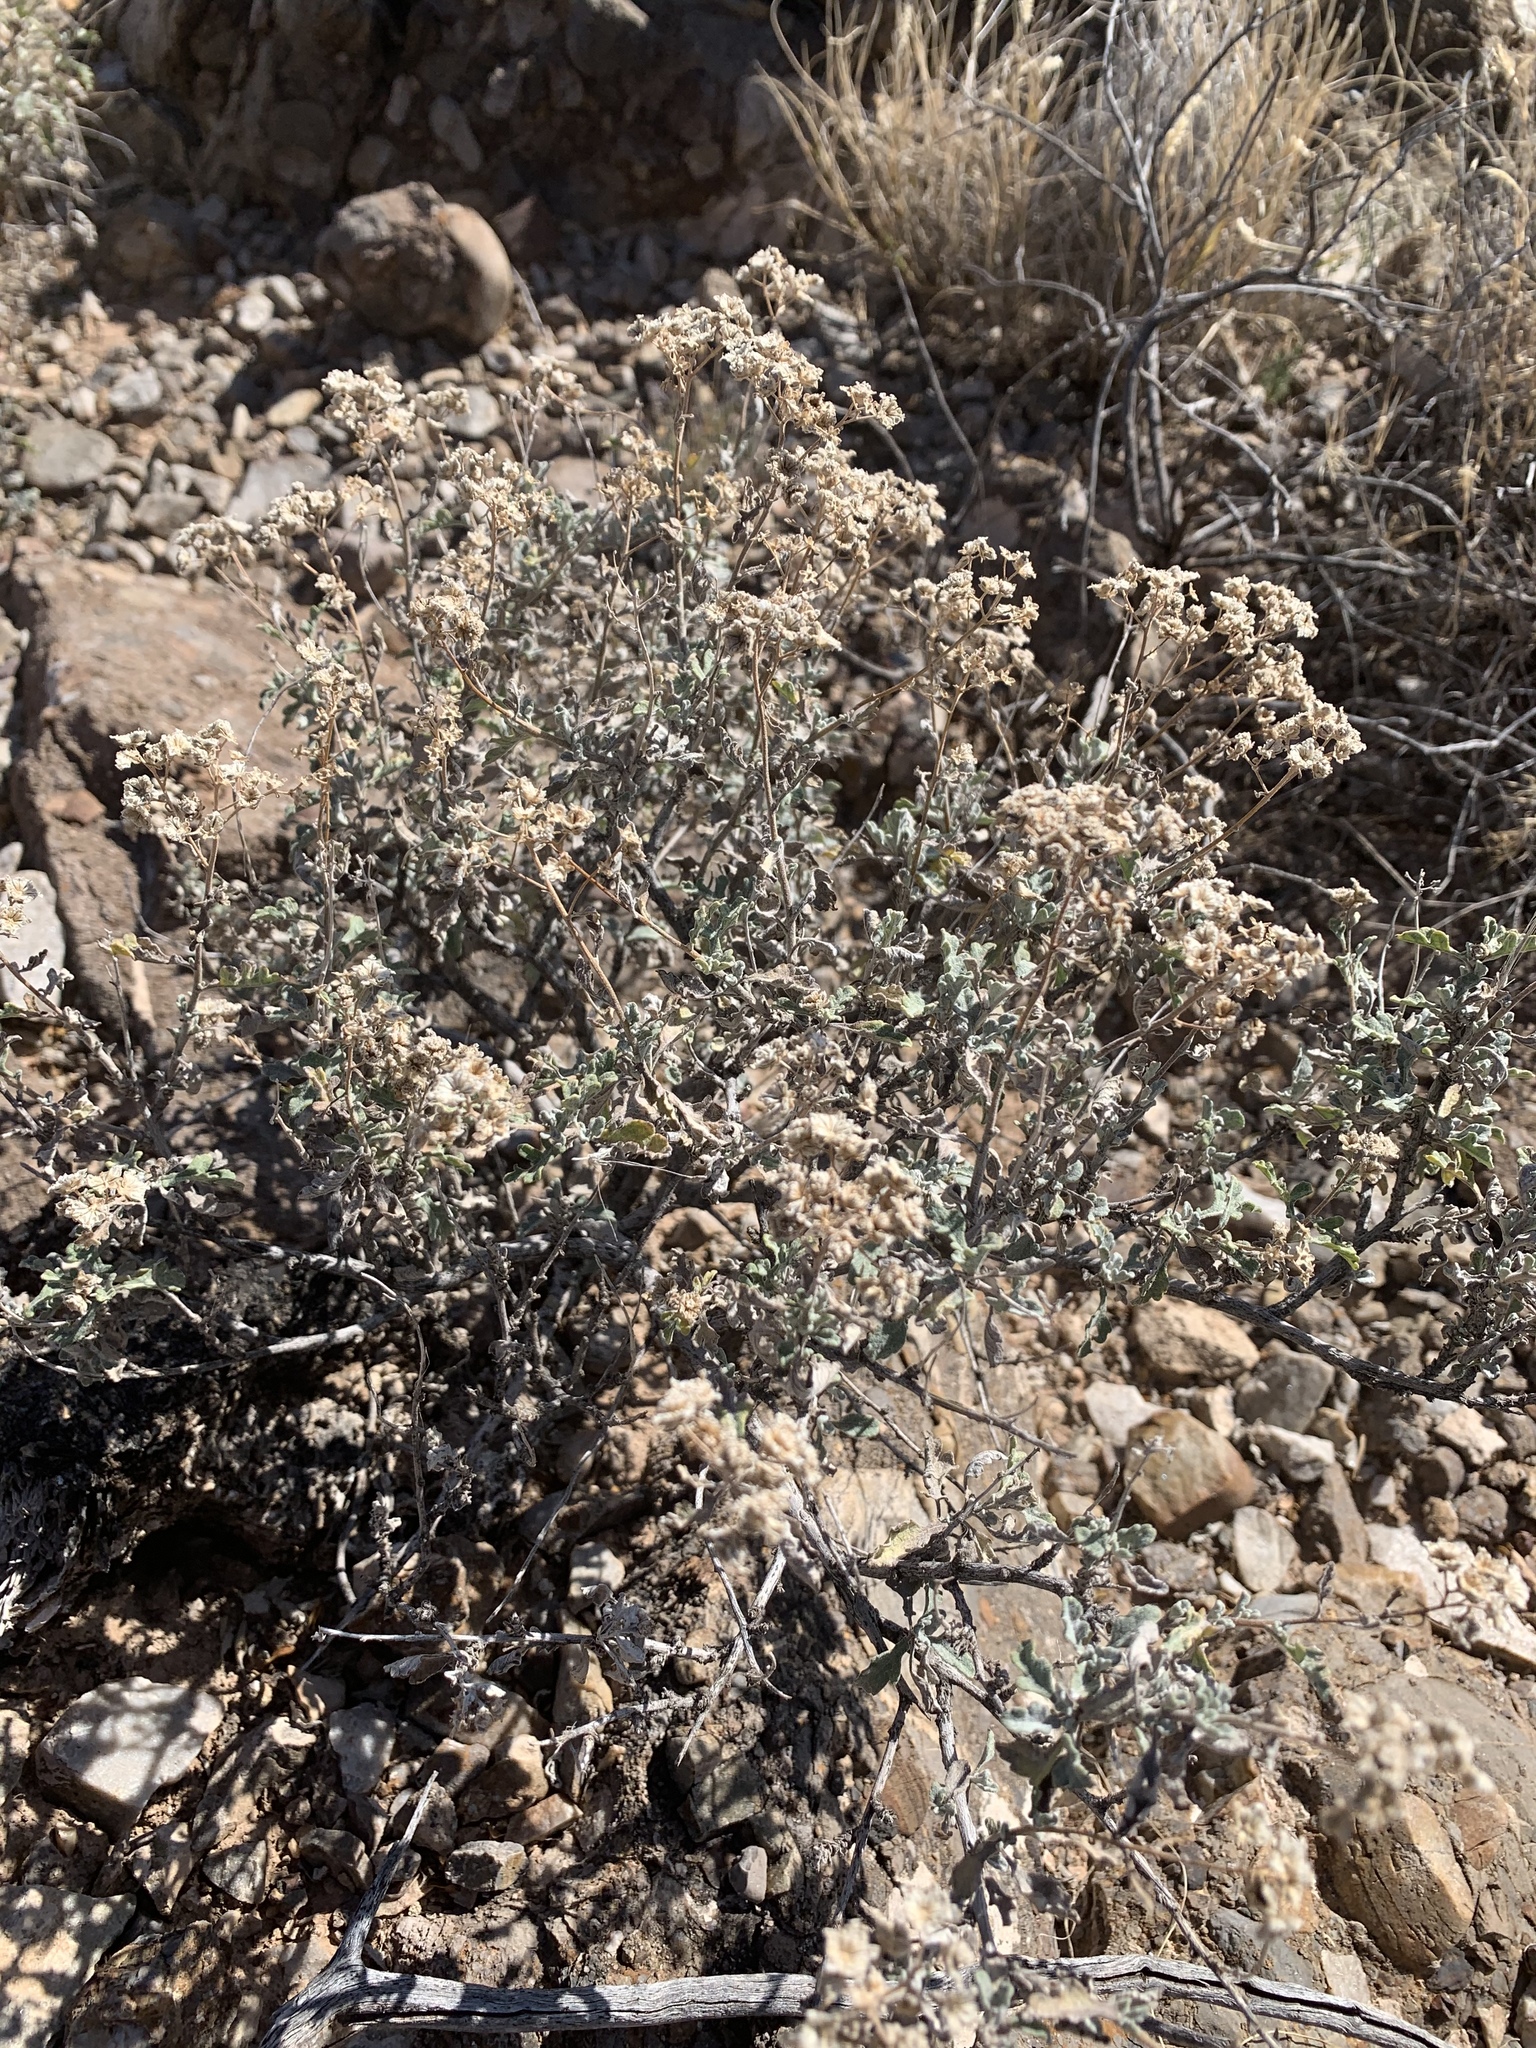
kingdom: Plantae
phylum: Tracheophyta
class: Magnoliopsida
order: Asterales
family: Asteraceae
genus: Parthenium
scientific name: Parthenium incanum
